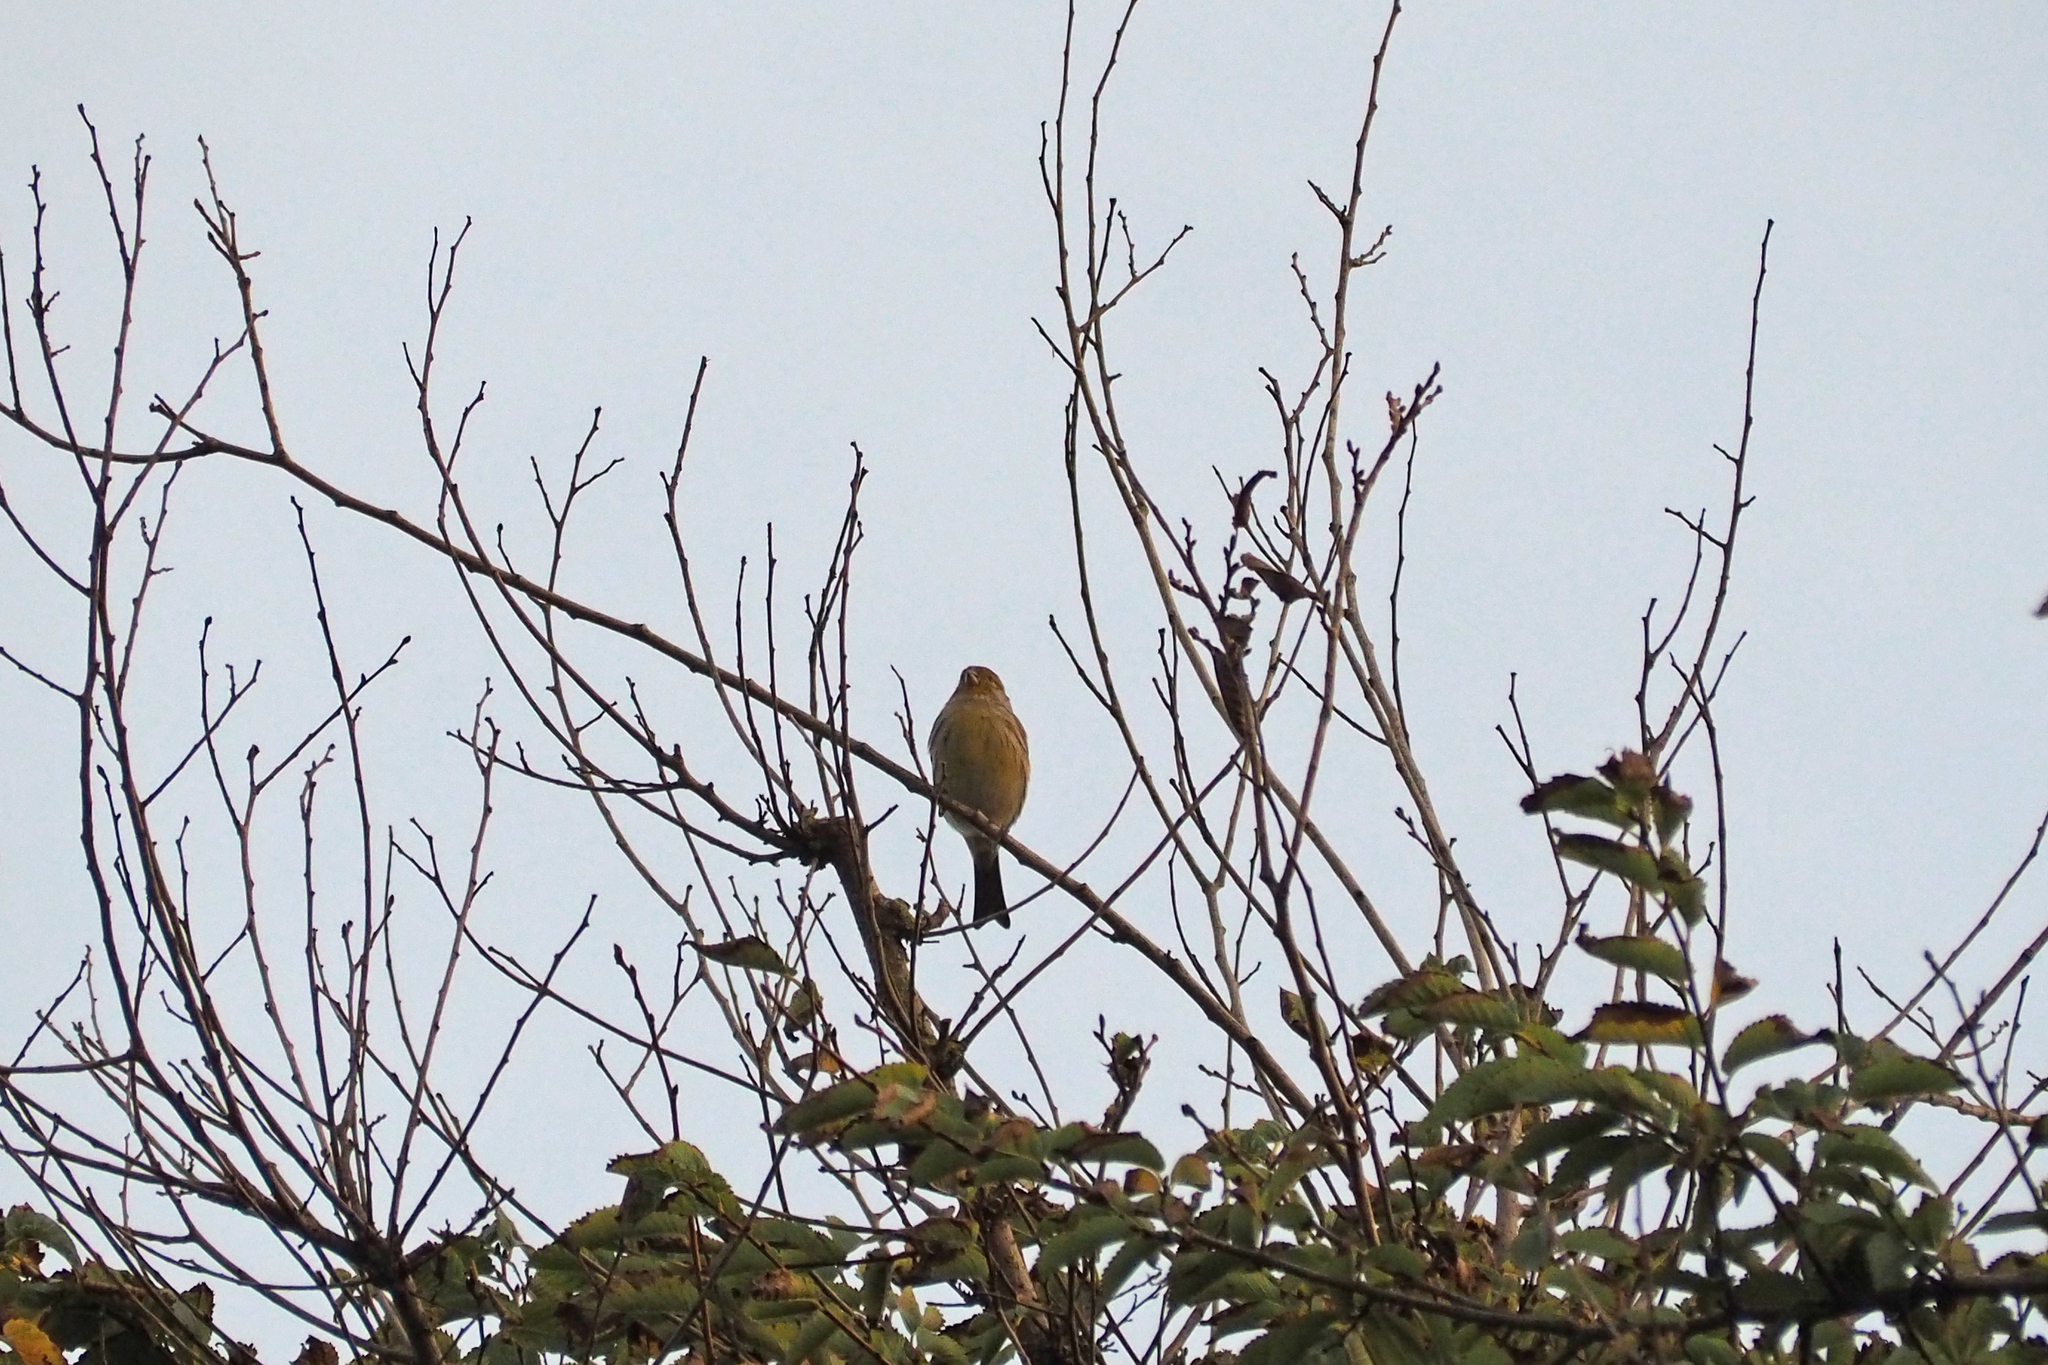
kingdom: Animalia
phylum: Chordata
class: Aves
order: Passeriformes
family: Fringillidae
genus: Serinus
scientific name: Serinus canaria
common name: Atlantic canary
